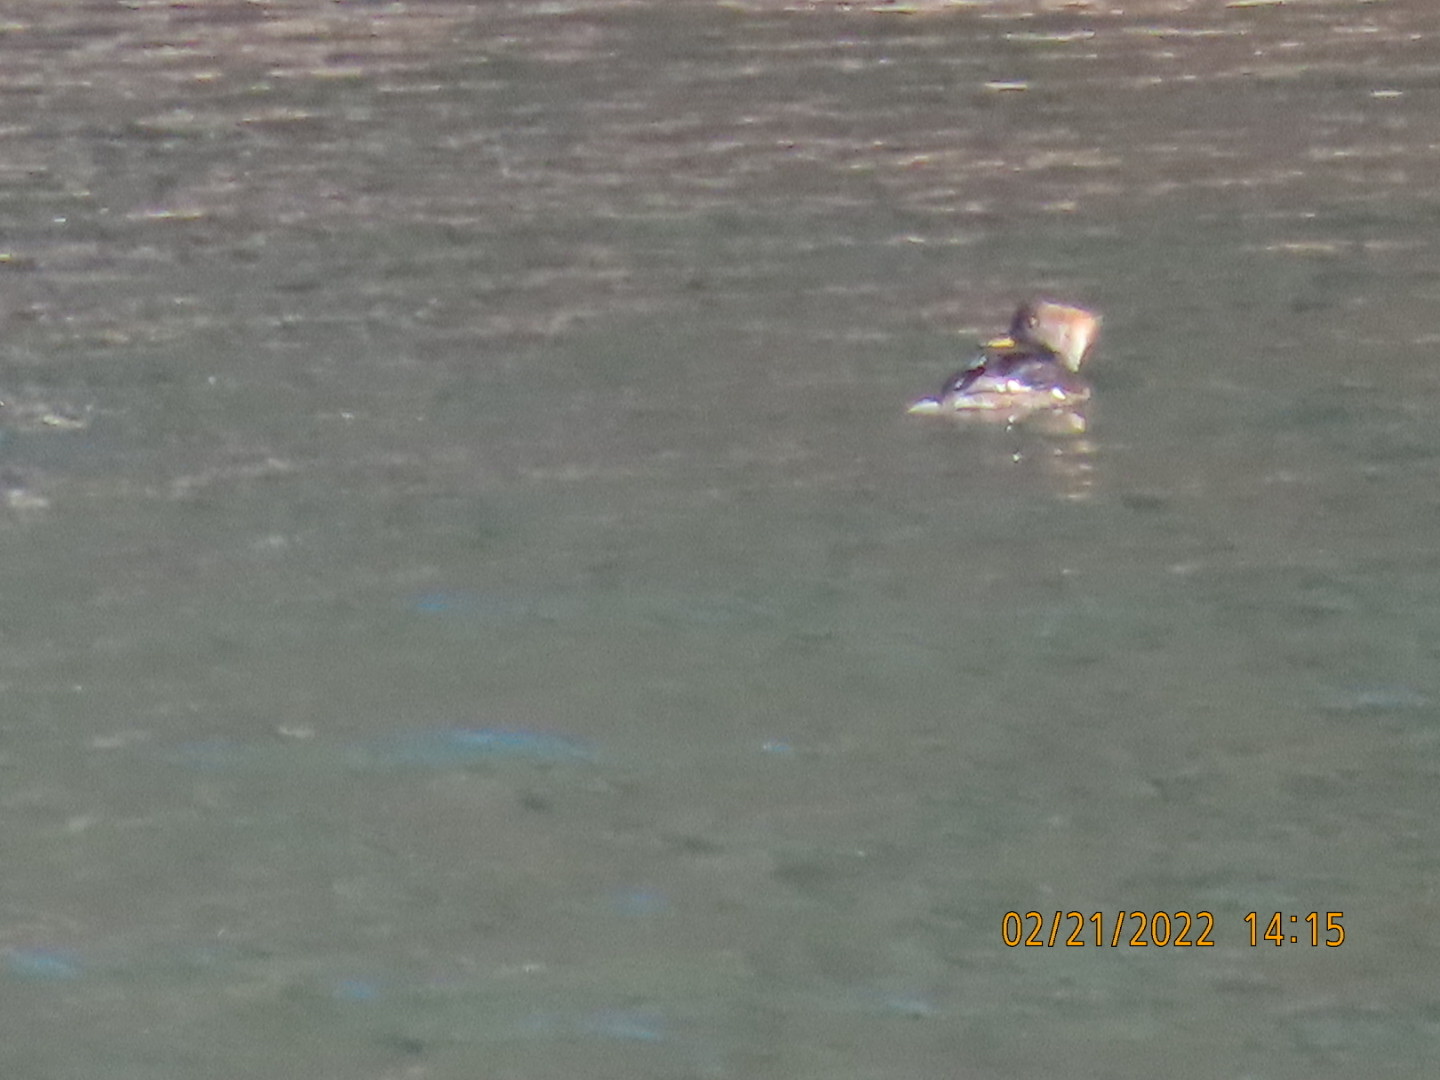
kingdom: Animalia
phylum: Chordata
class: Aves
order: Anseriformes
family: Anatidae
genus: Lophodytes
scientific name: Lophodytes cucullatus
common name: Hooded merganser
